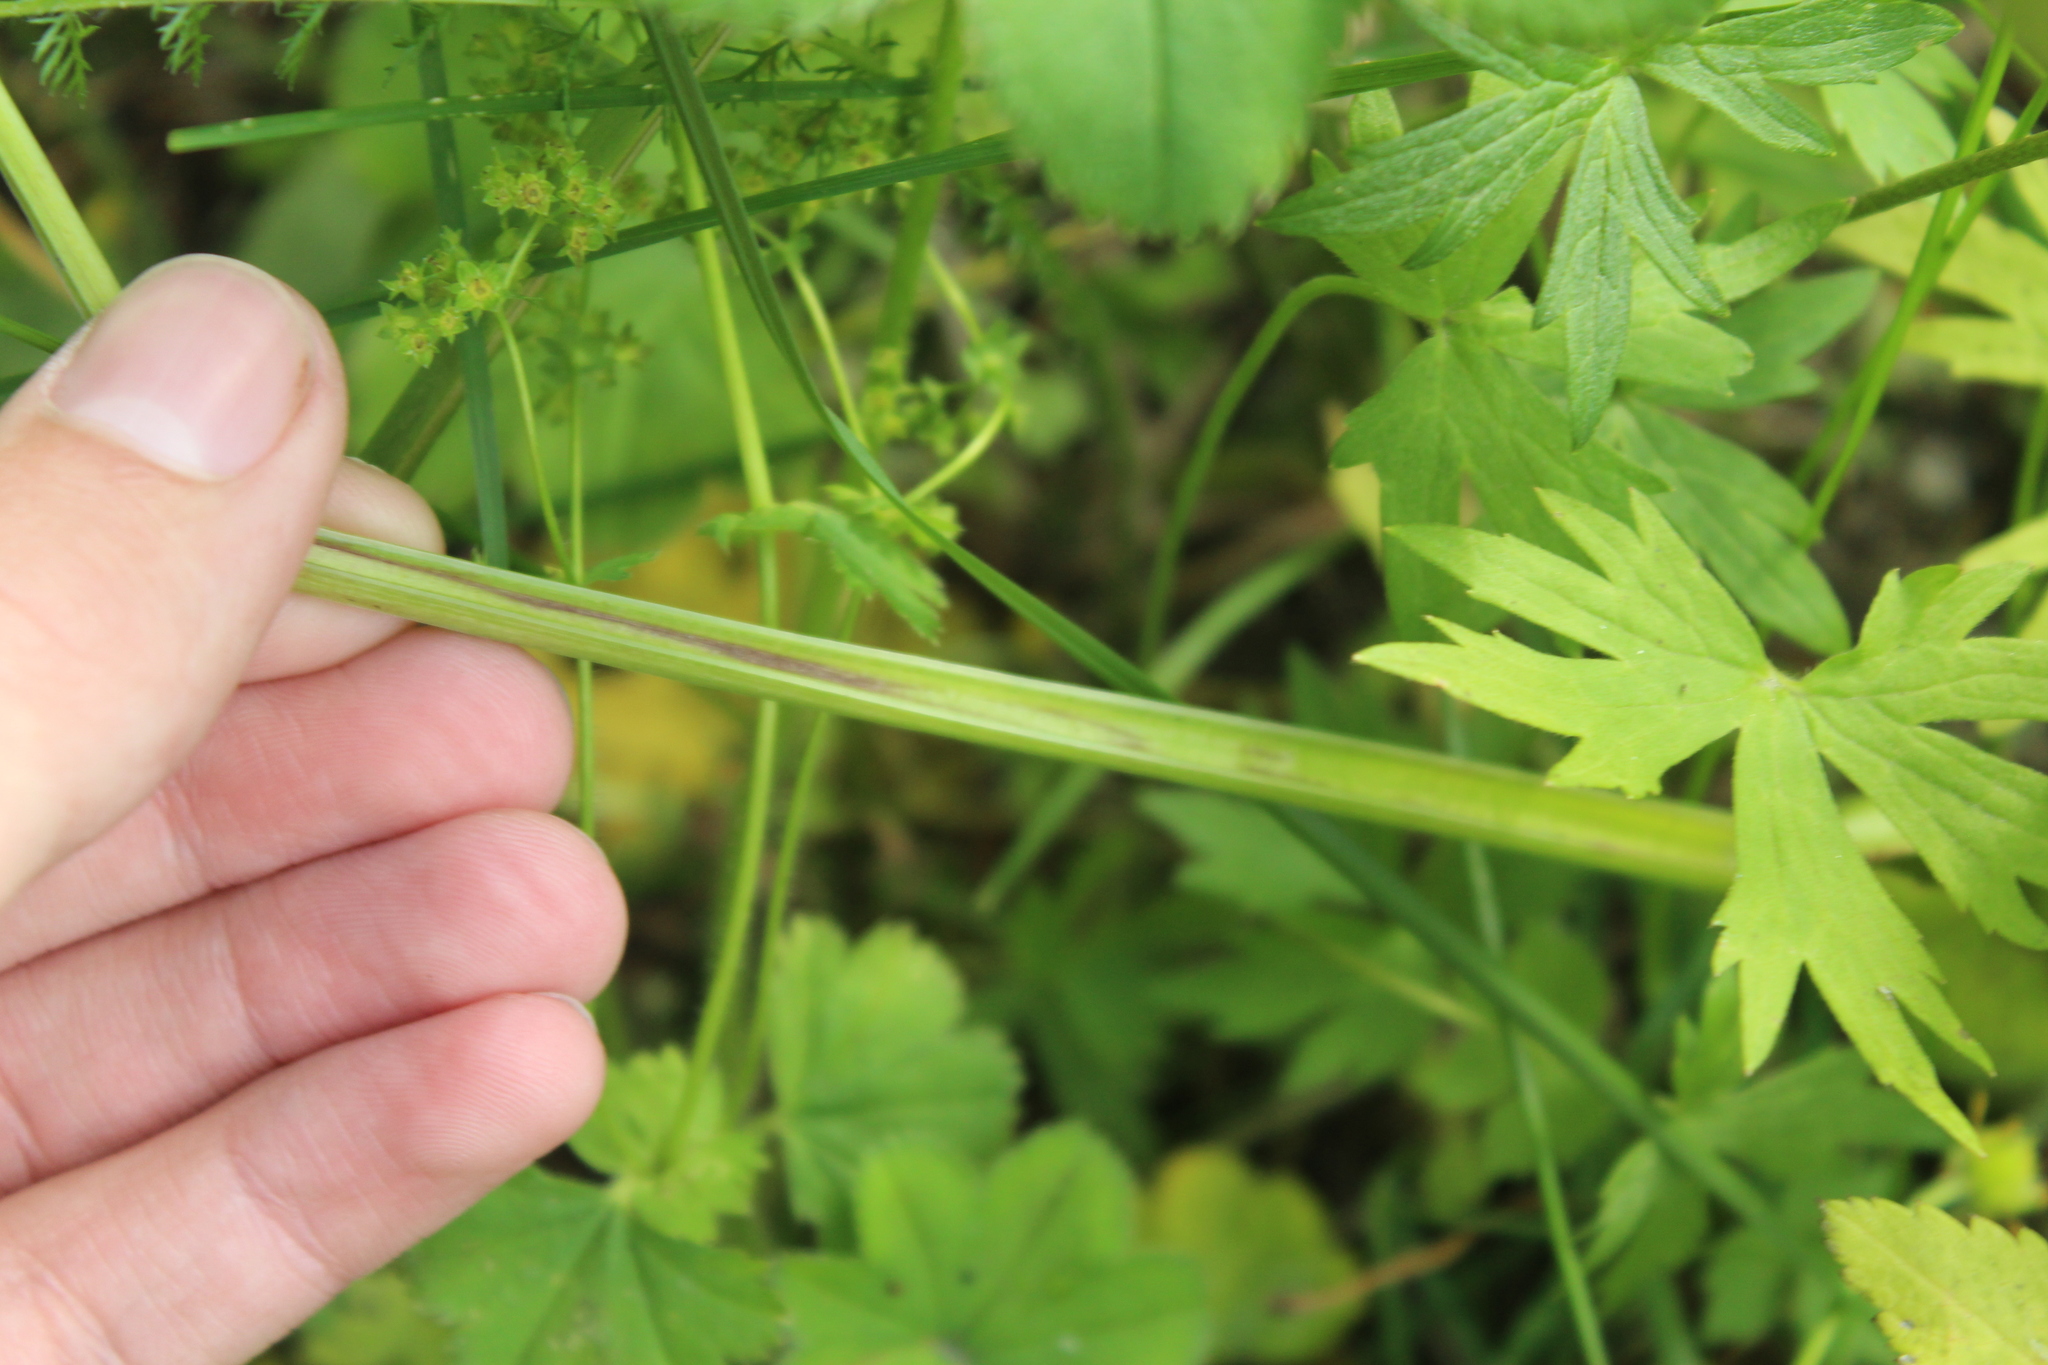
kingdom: Plantae
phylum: Tracheophyta
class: Magnoliopsida
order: Apiales
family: Apiaceae
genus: Angelica
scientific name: Angelica sylvestris
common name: Wild angelica
